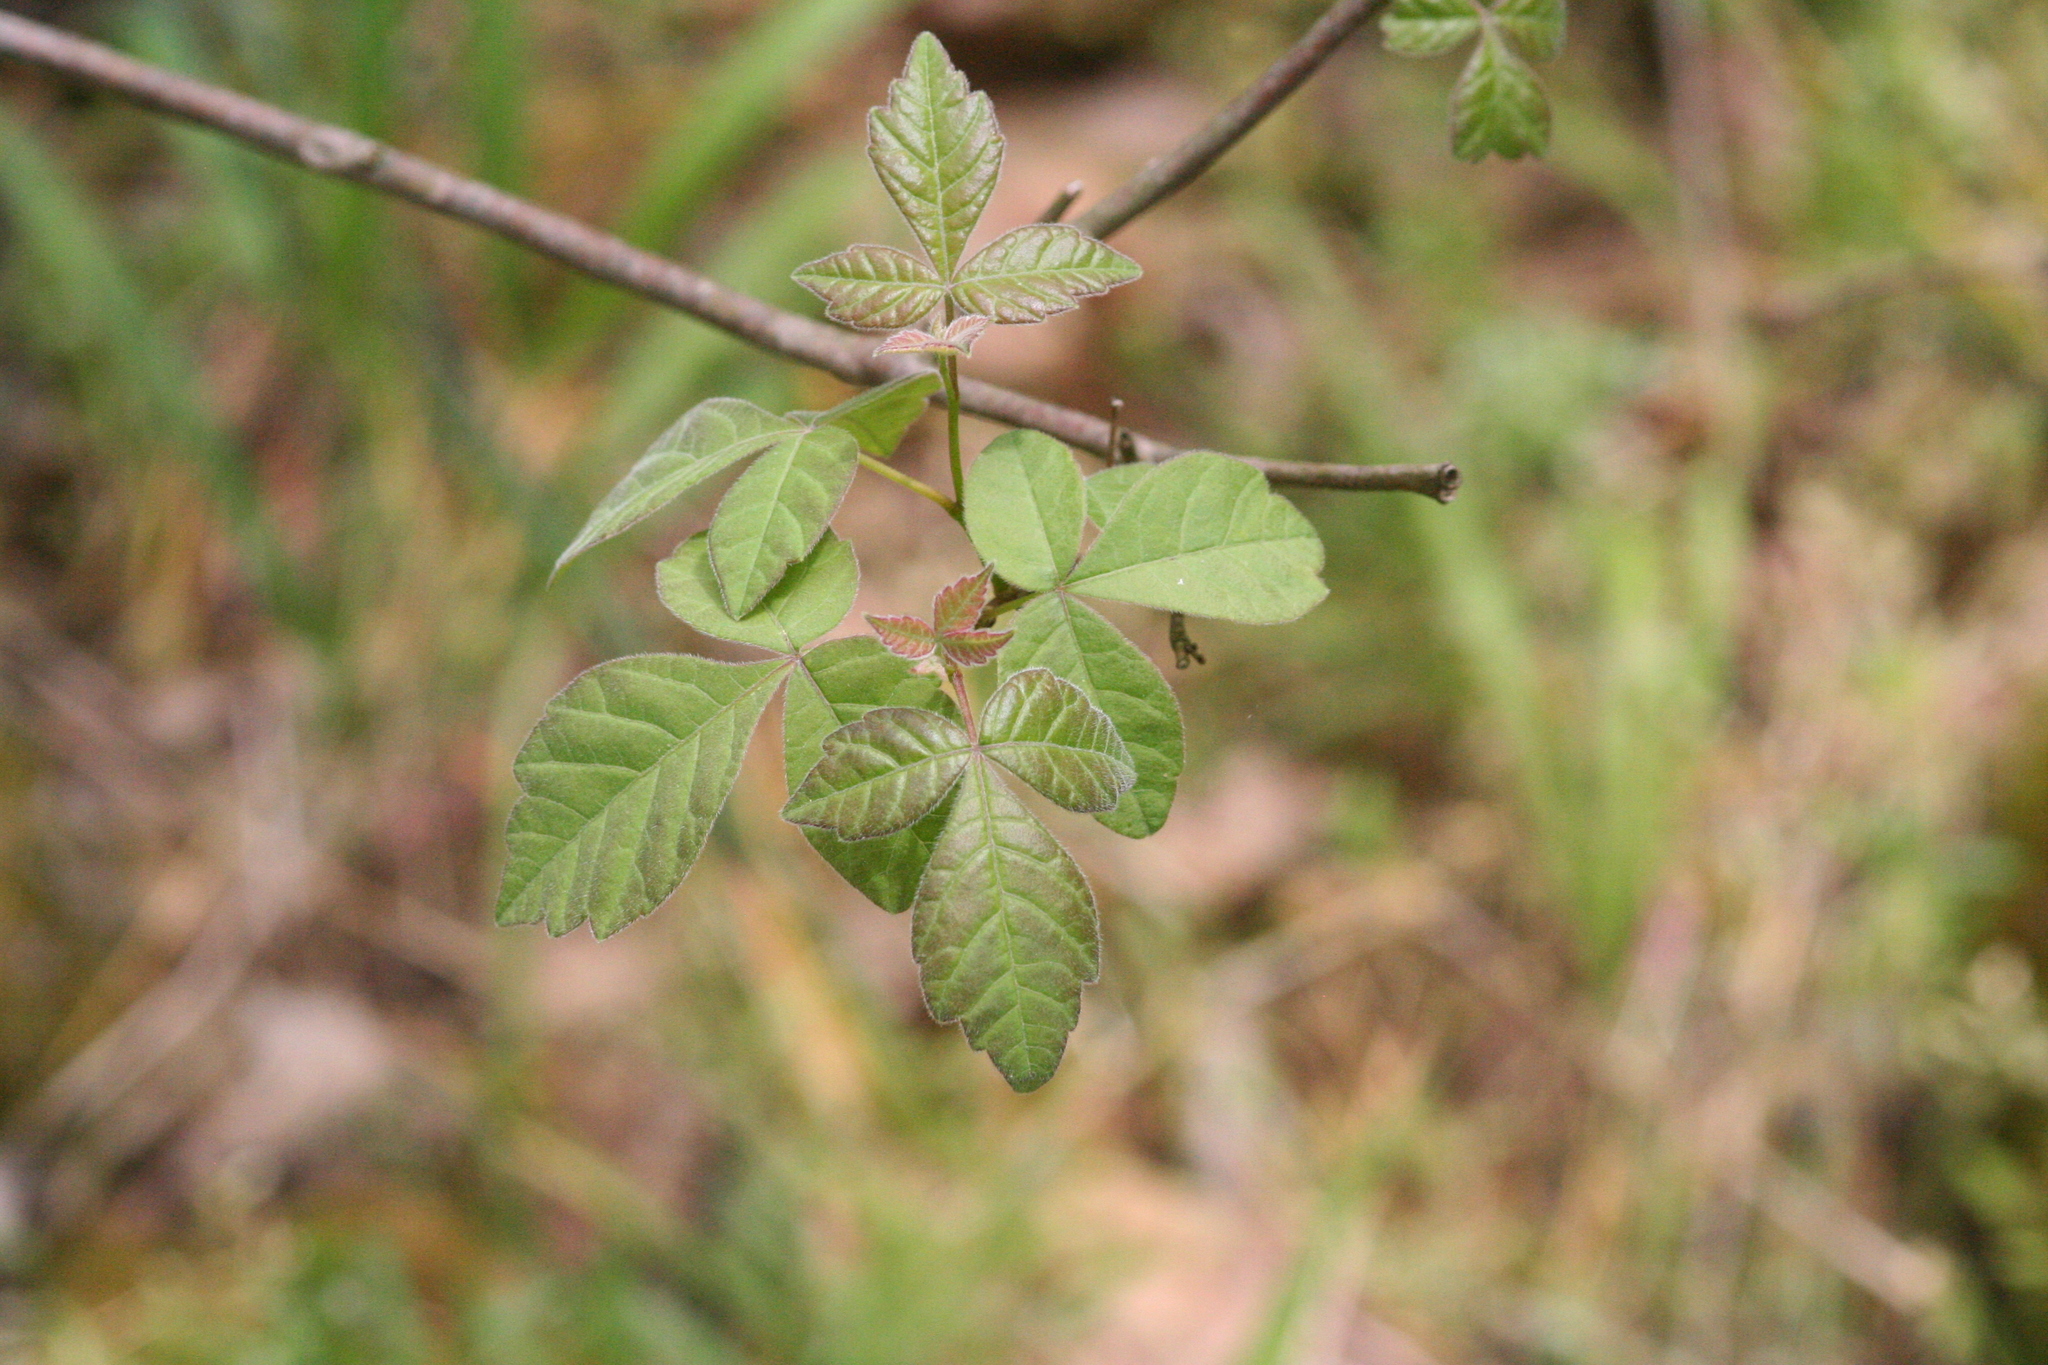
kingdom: Plantae
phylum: Tracheophyta
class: Magnoliopsida
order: Sapindales
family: Anacardiaceae
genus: Rhus
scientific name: Rhus aromatica
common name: Aromatic sumac
